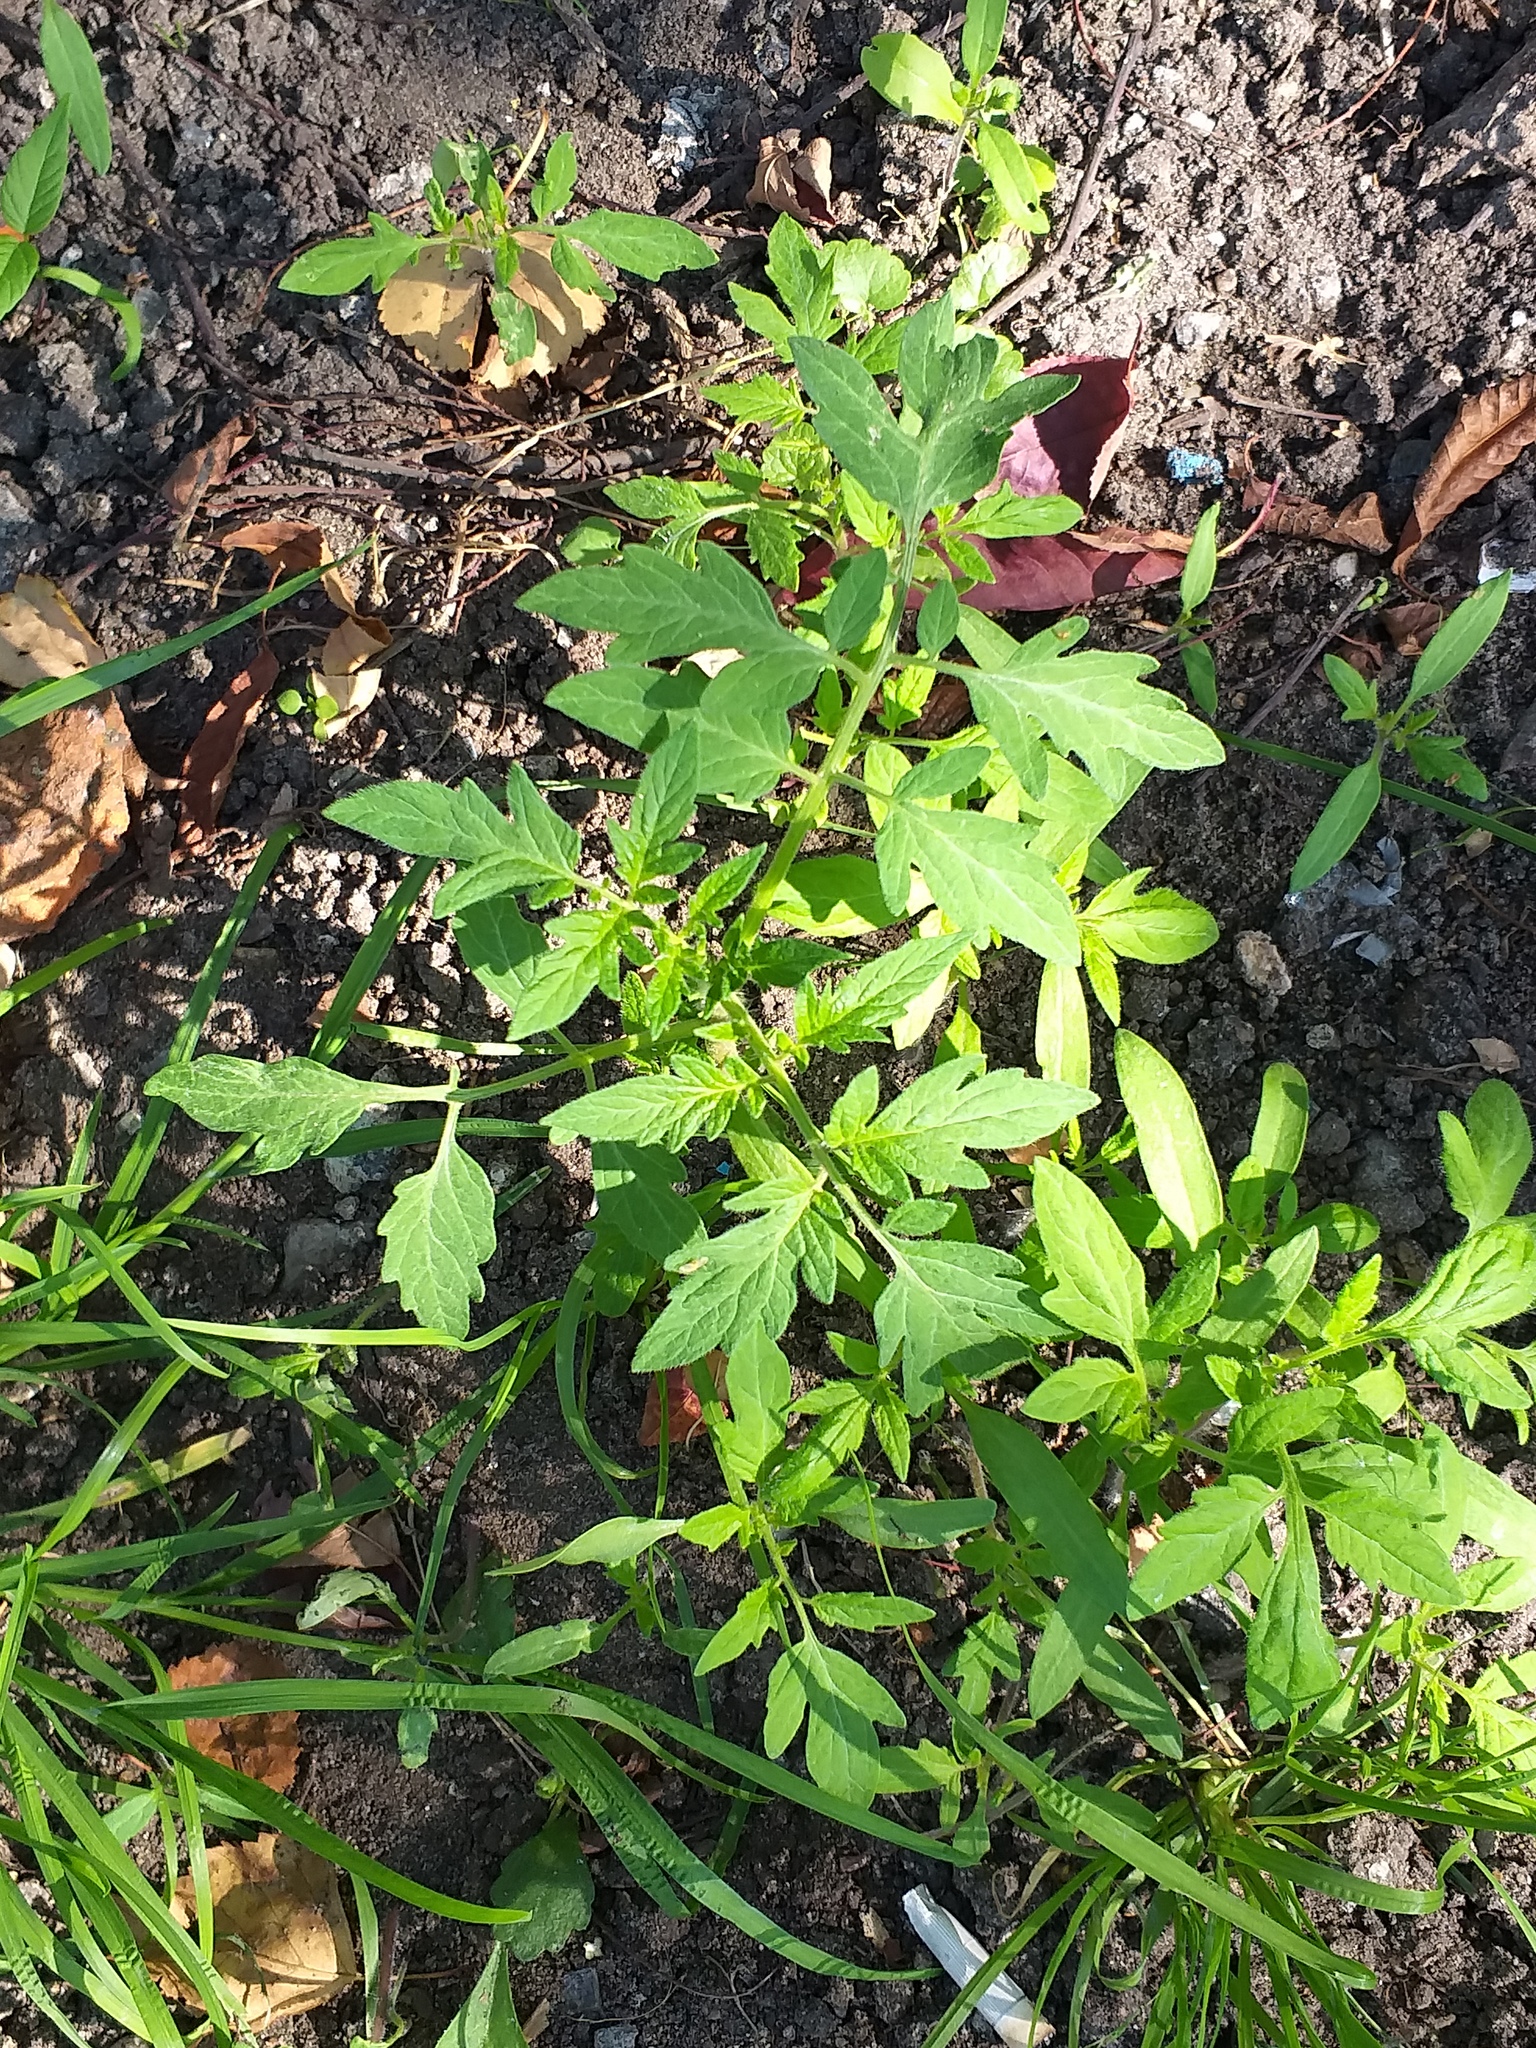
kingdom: Plantae
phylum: Tracheophyta
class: Magnoliopsida
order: Solanales
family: Solanaceae
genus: Solanum
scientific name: Solanum lycopersicum
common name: Garden tomato
